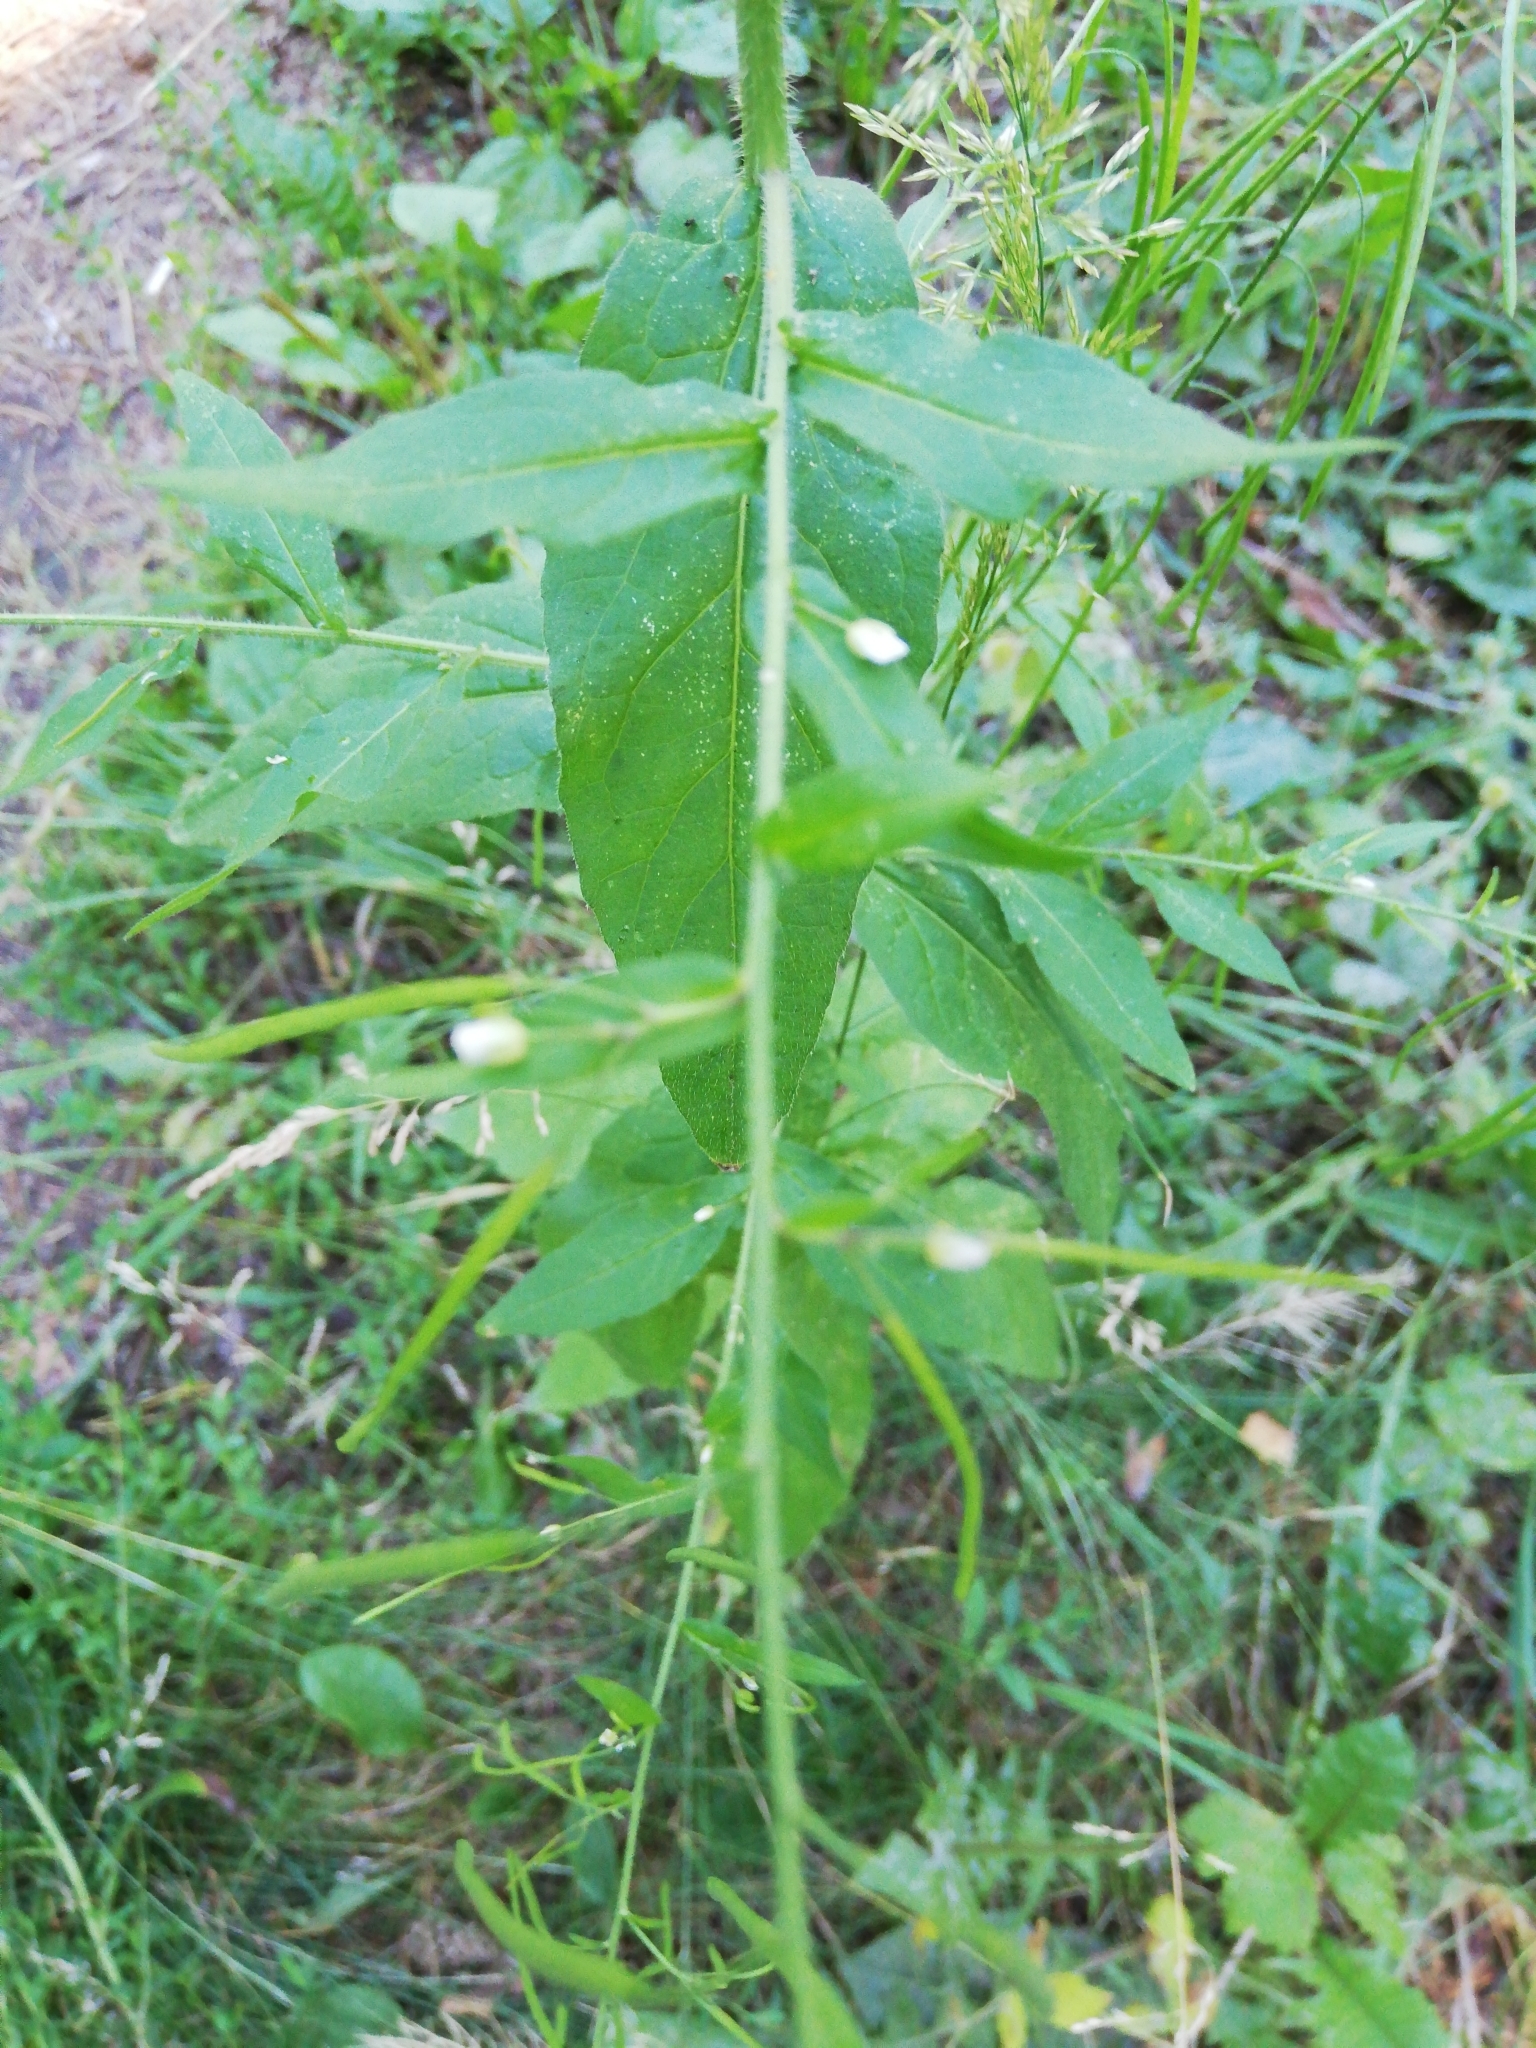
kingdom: Plantae
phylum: Tracheophyta
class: Magnoliopsida
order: Brassicales
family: Brassicaceae
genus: Catolobus
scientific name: Catolobus pendulus
